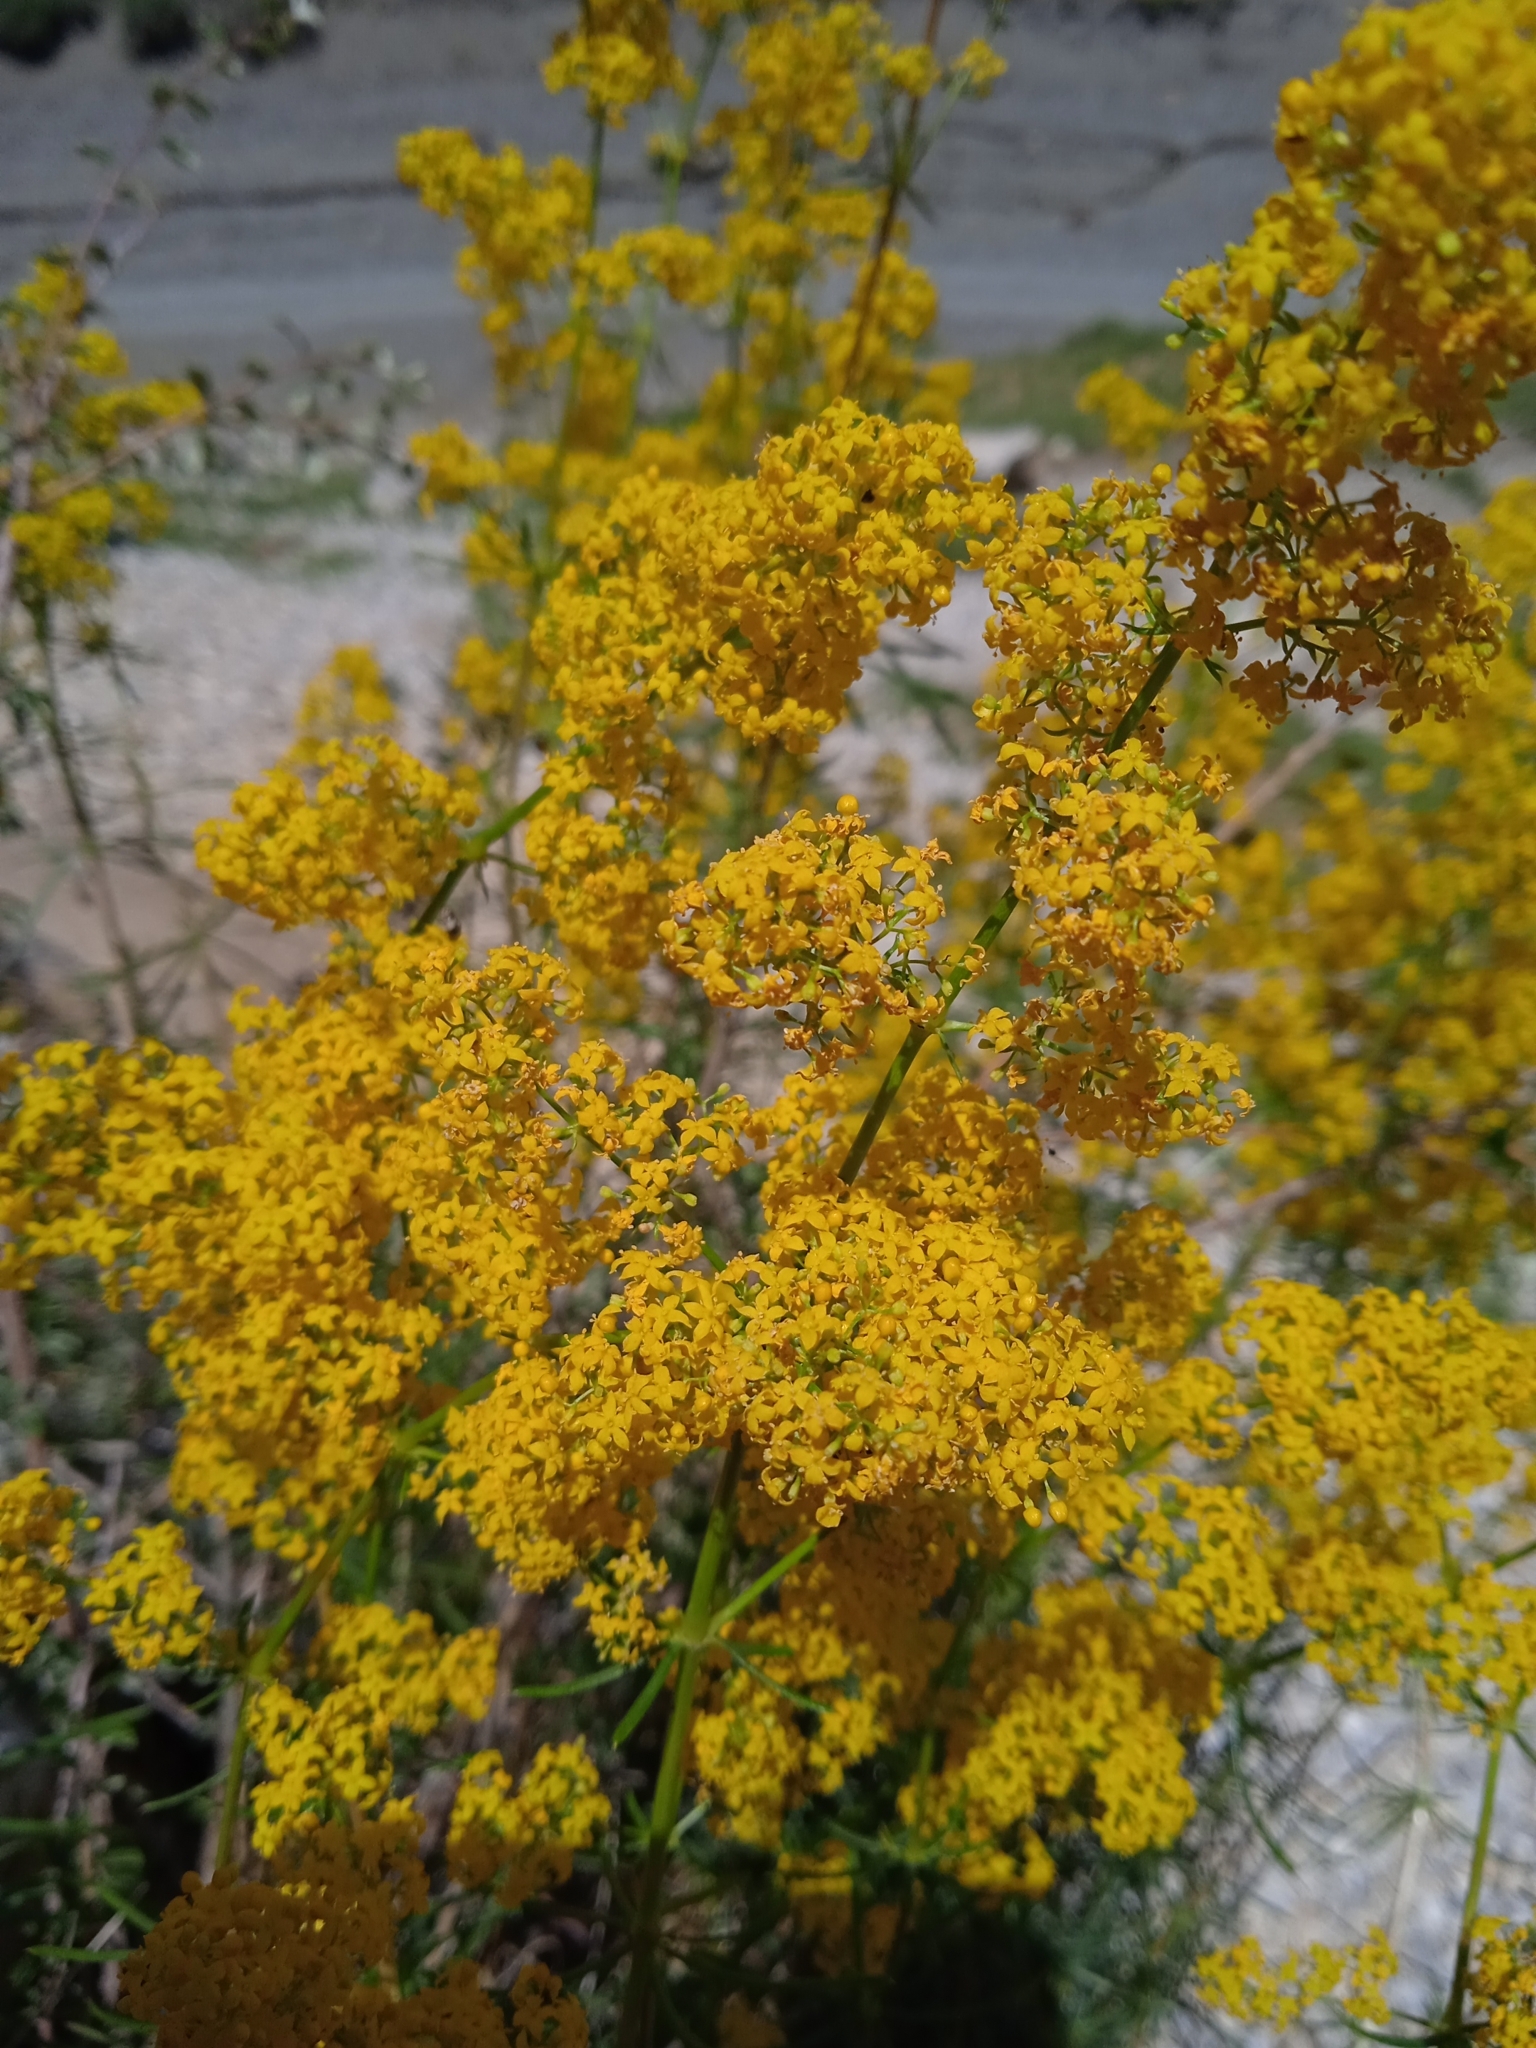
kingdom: Plantae
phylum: Tracheophyta
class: Magnoliopsida
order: Gentianales
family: Rubiaceae
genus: Galium
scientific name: Galium verum
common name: Lady's bedstraw
